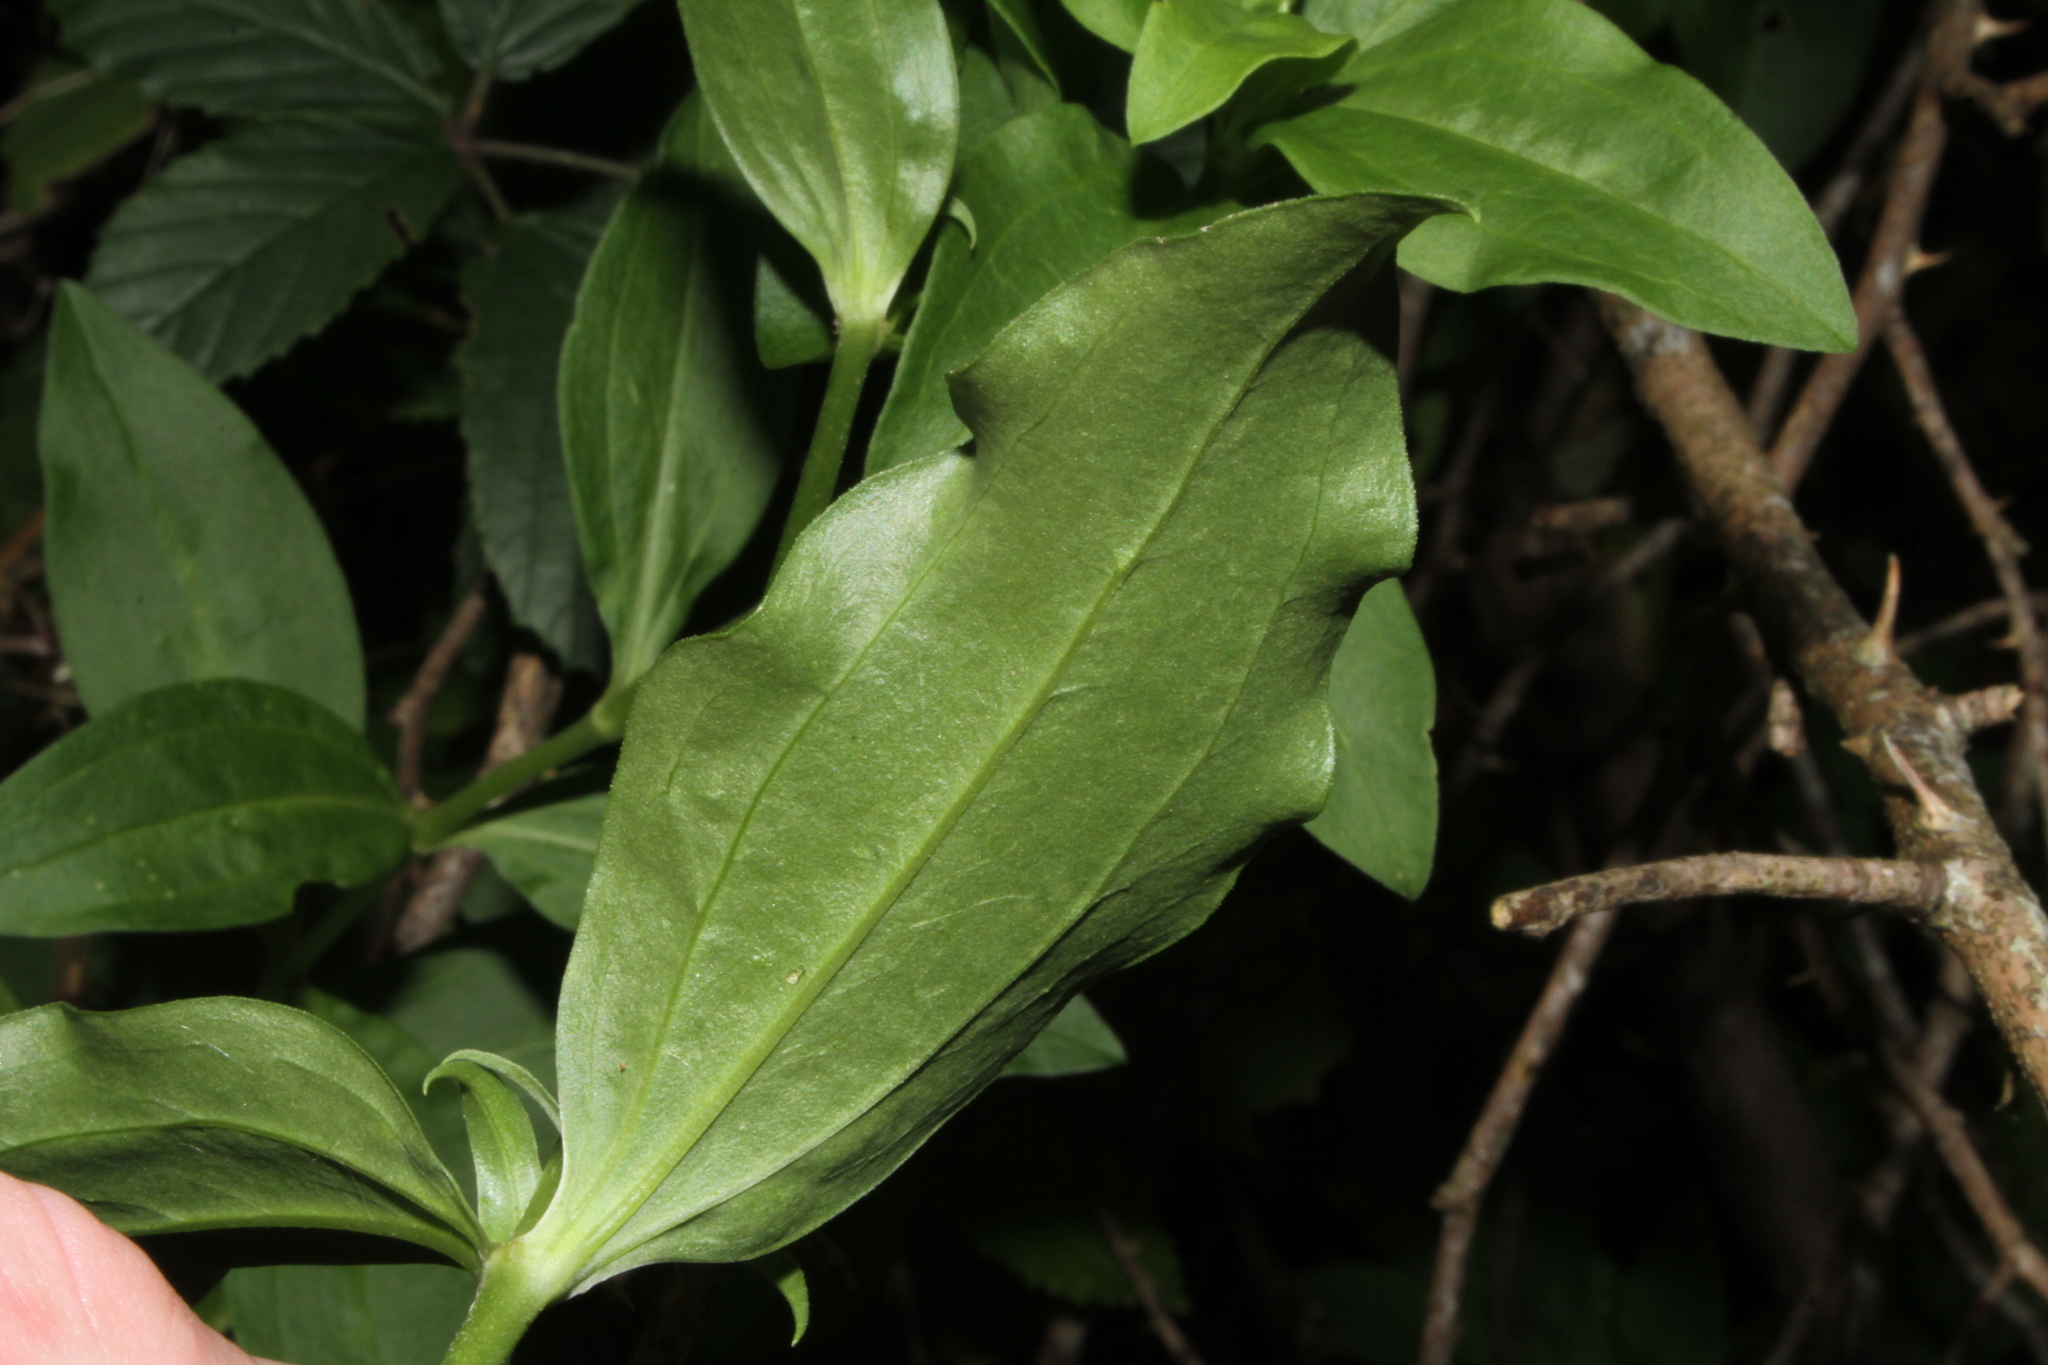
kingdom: Plantae
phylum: Tracheophyta
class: Magnoliopsida
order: Caryophyllales
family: Caryophyllaceae
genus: Saponaria
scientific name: Saponaria officinalis
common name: Soapwort
